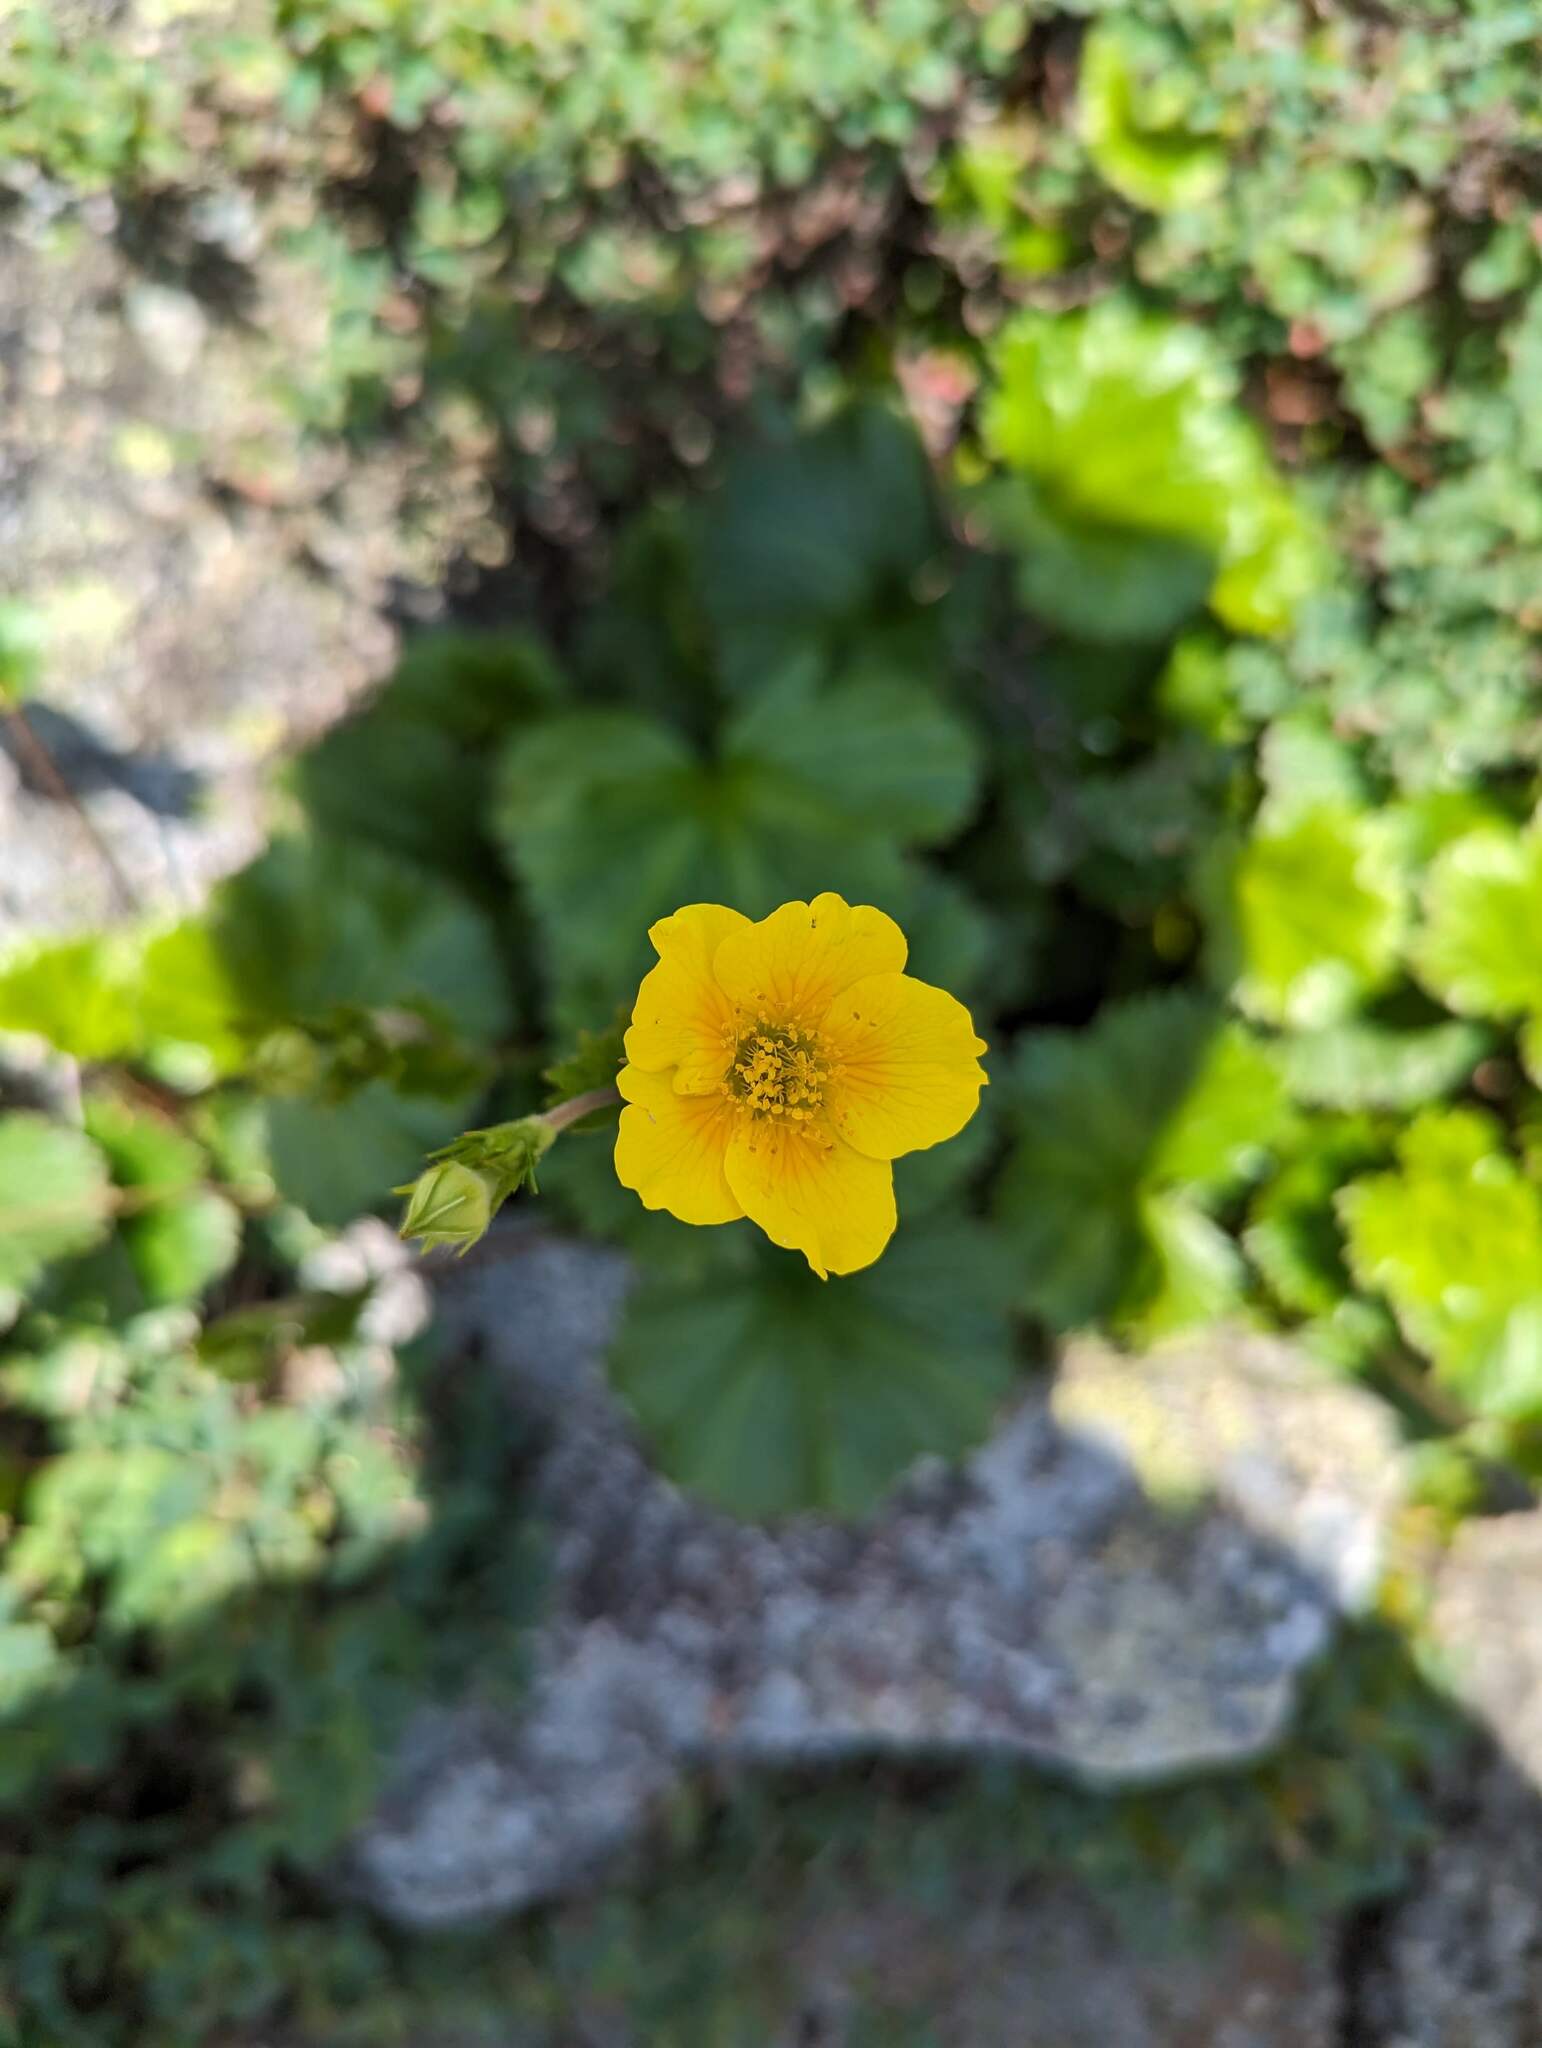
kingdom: Plantae
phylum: Tracheophyta
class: Magnoliopsida
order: Rosales
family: Rosaceae
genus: Geum
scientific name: Geum peckii
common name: Eastern mountain avens
